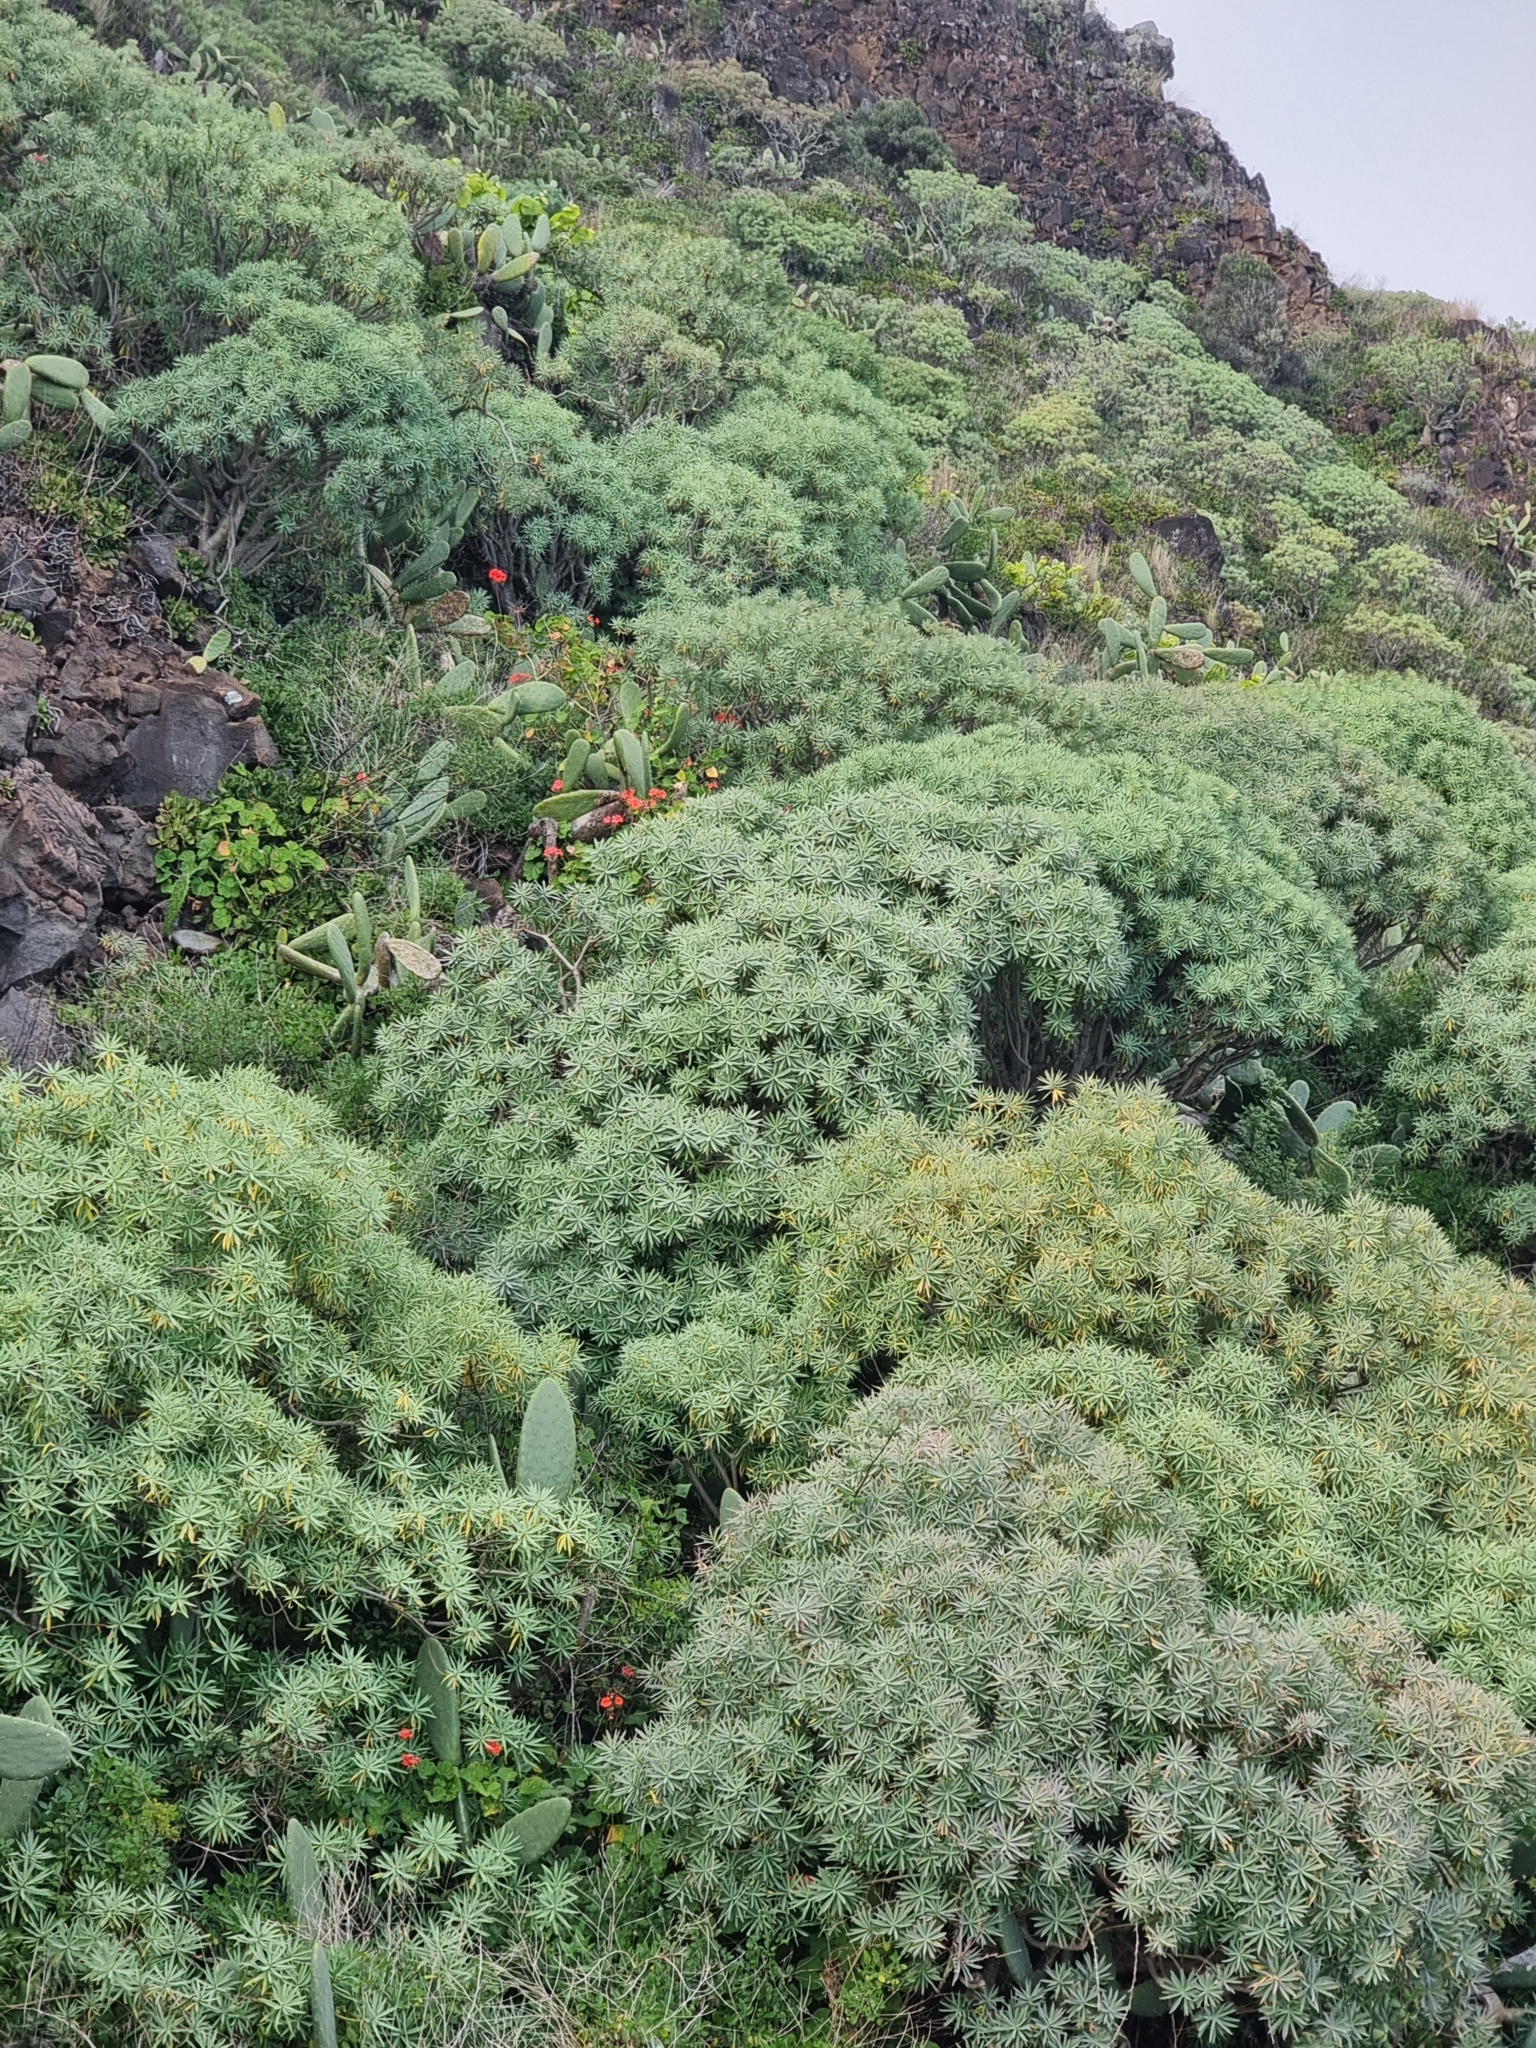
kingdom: Plantae
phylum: Tracheophyta
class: Magnoliopsida
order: Malpighiales
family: Euphorbiaceae
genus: Euphorbia
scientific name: Euphorbia piscatoria
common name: Fish-stunning spurge
